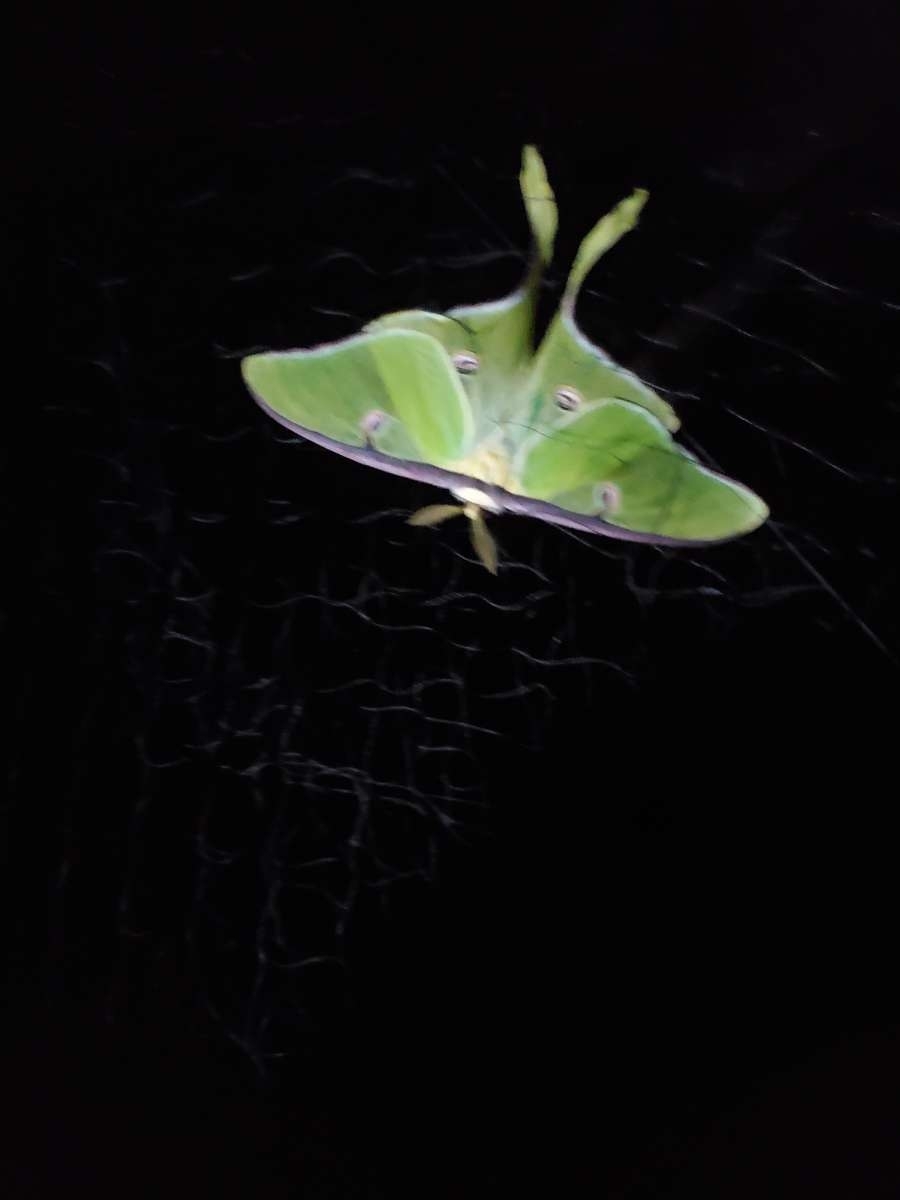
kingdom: Animalia
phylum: Arthropoda
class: Insecta
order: Lepidoptera
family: Saturniidae
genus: Actias
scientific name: Actias luna
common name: Luna moth
